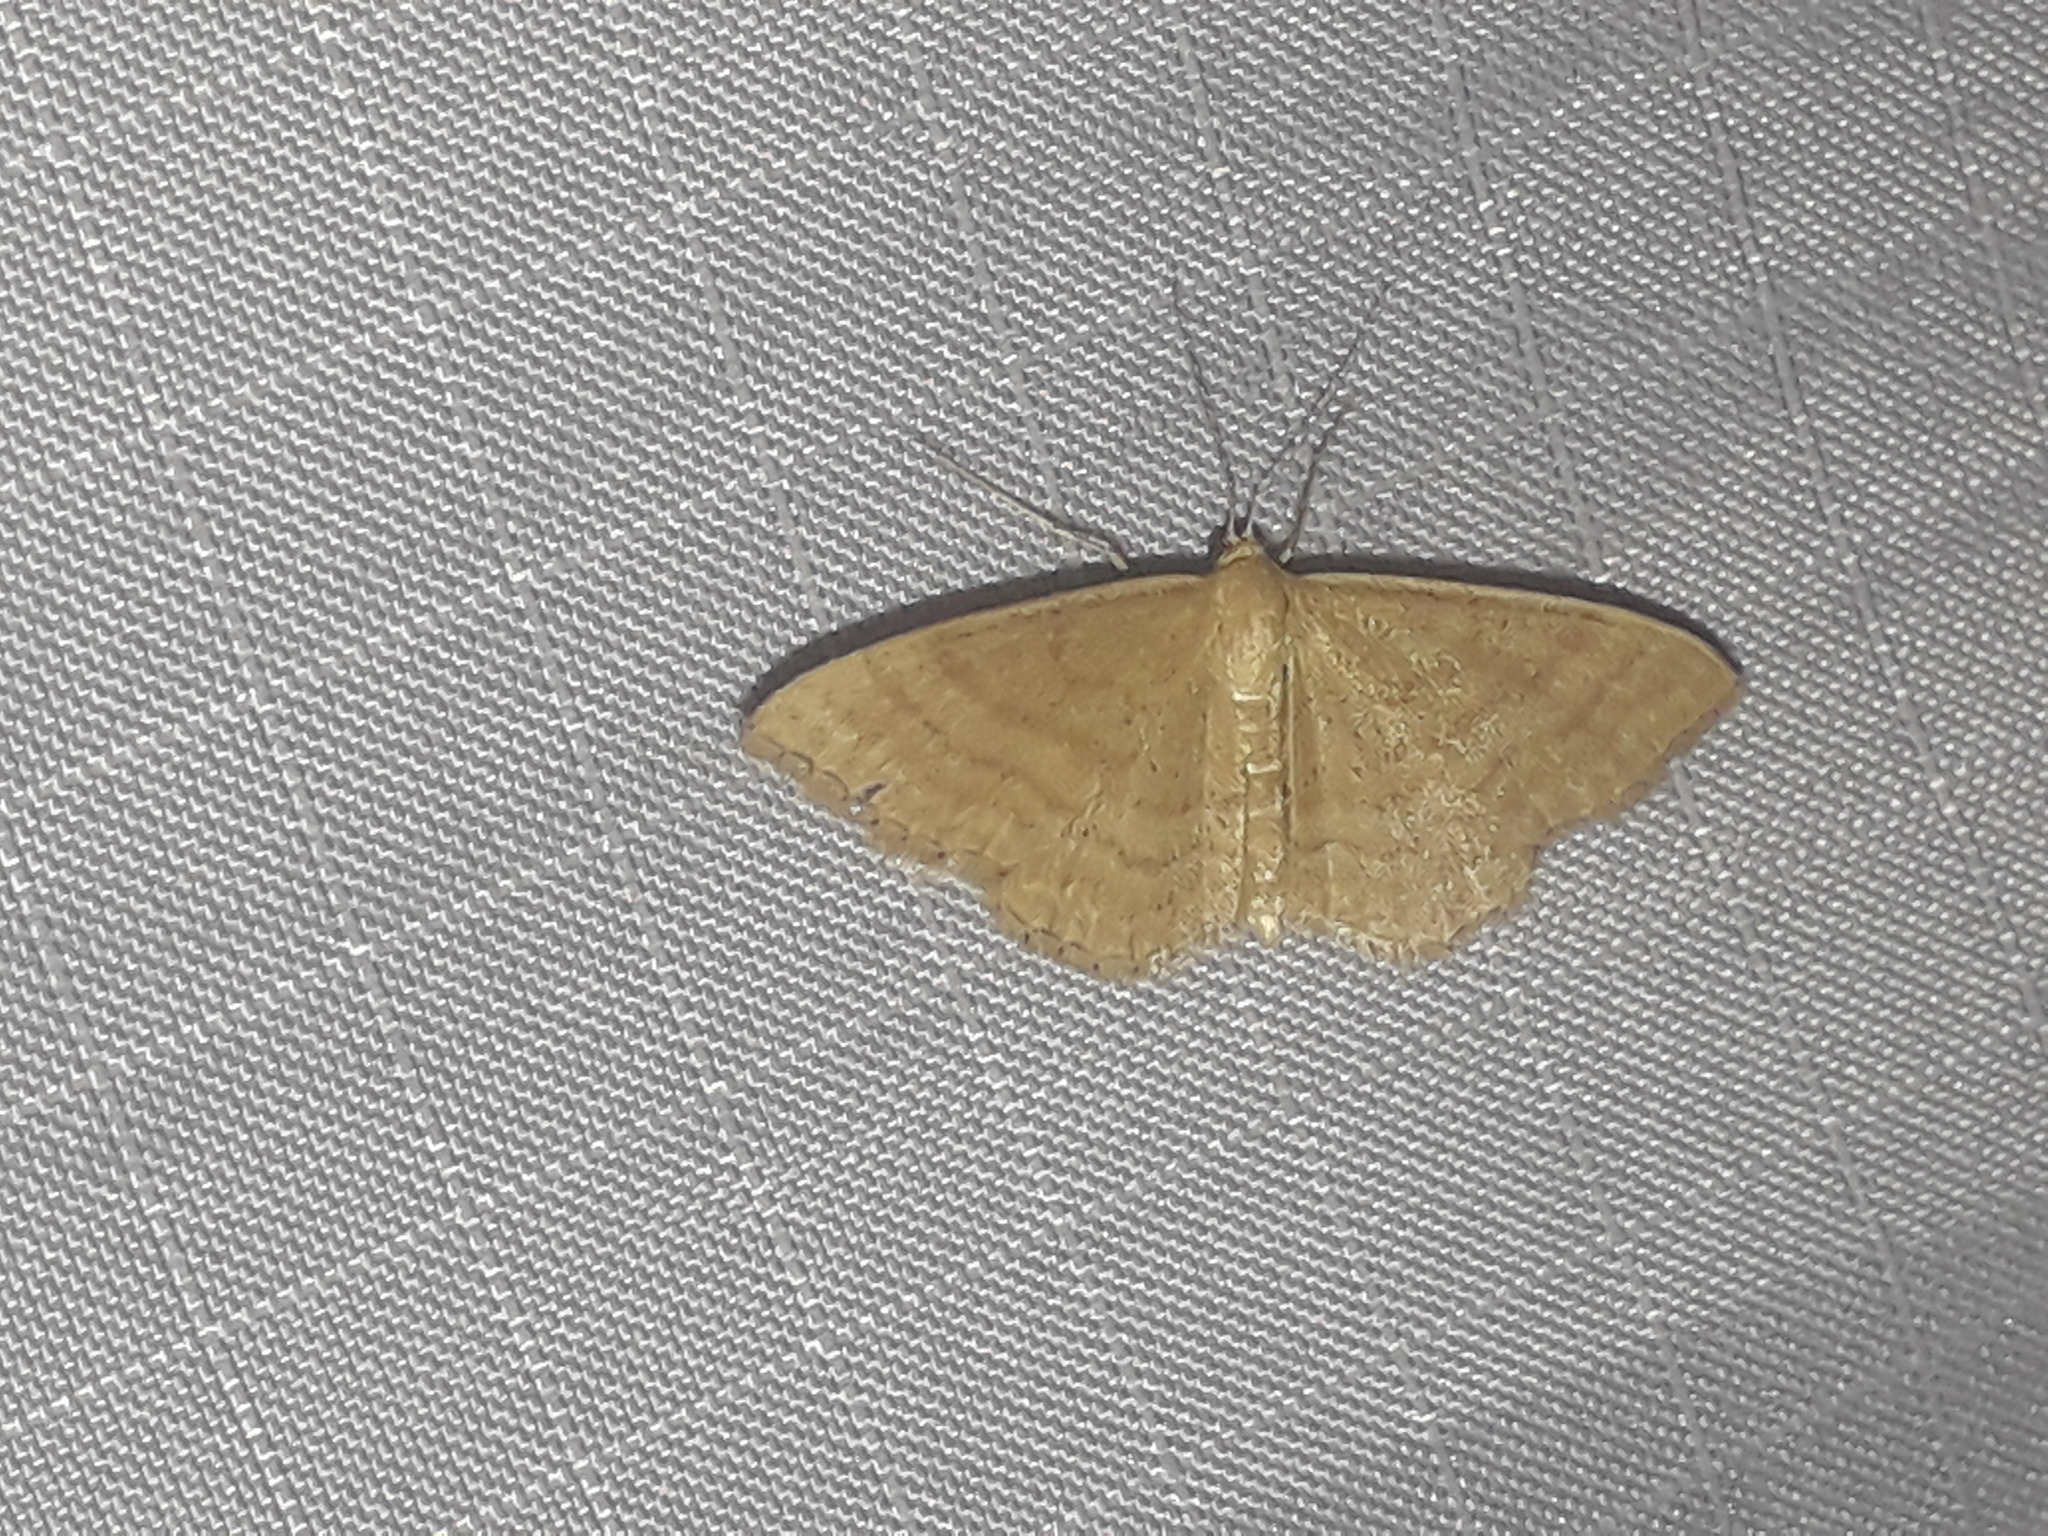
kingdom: Animalia
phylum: Arthropoda
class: Insecta
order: Lepidoptera
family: Geometridae
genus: Idaea
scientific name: Idaea ochrata
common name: Bright wave
